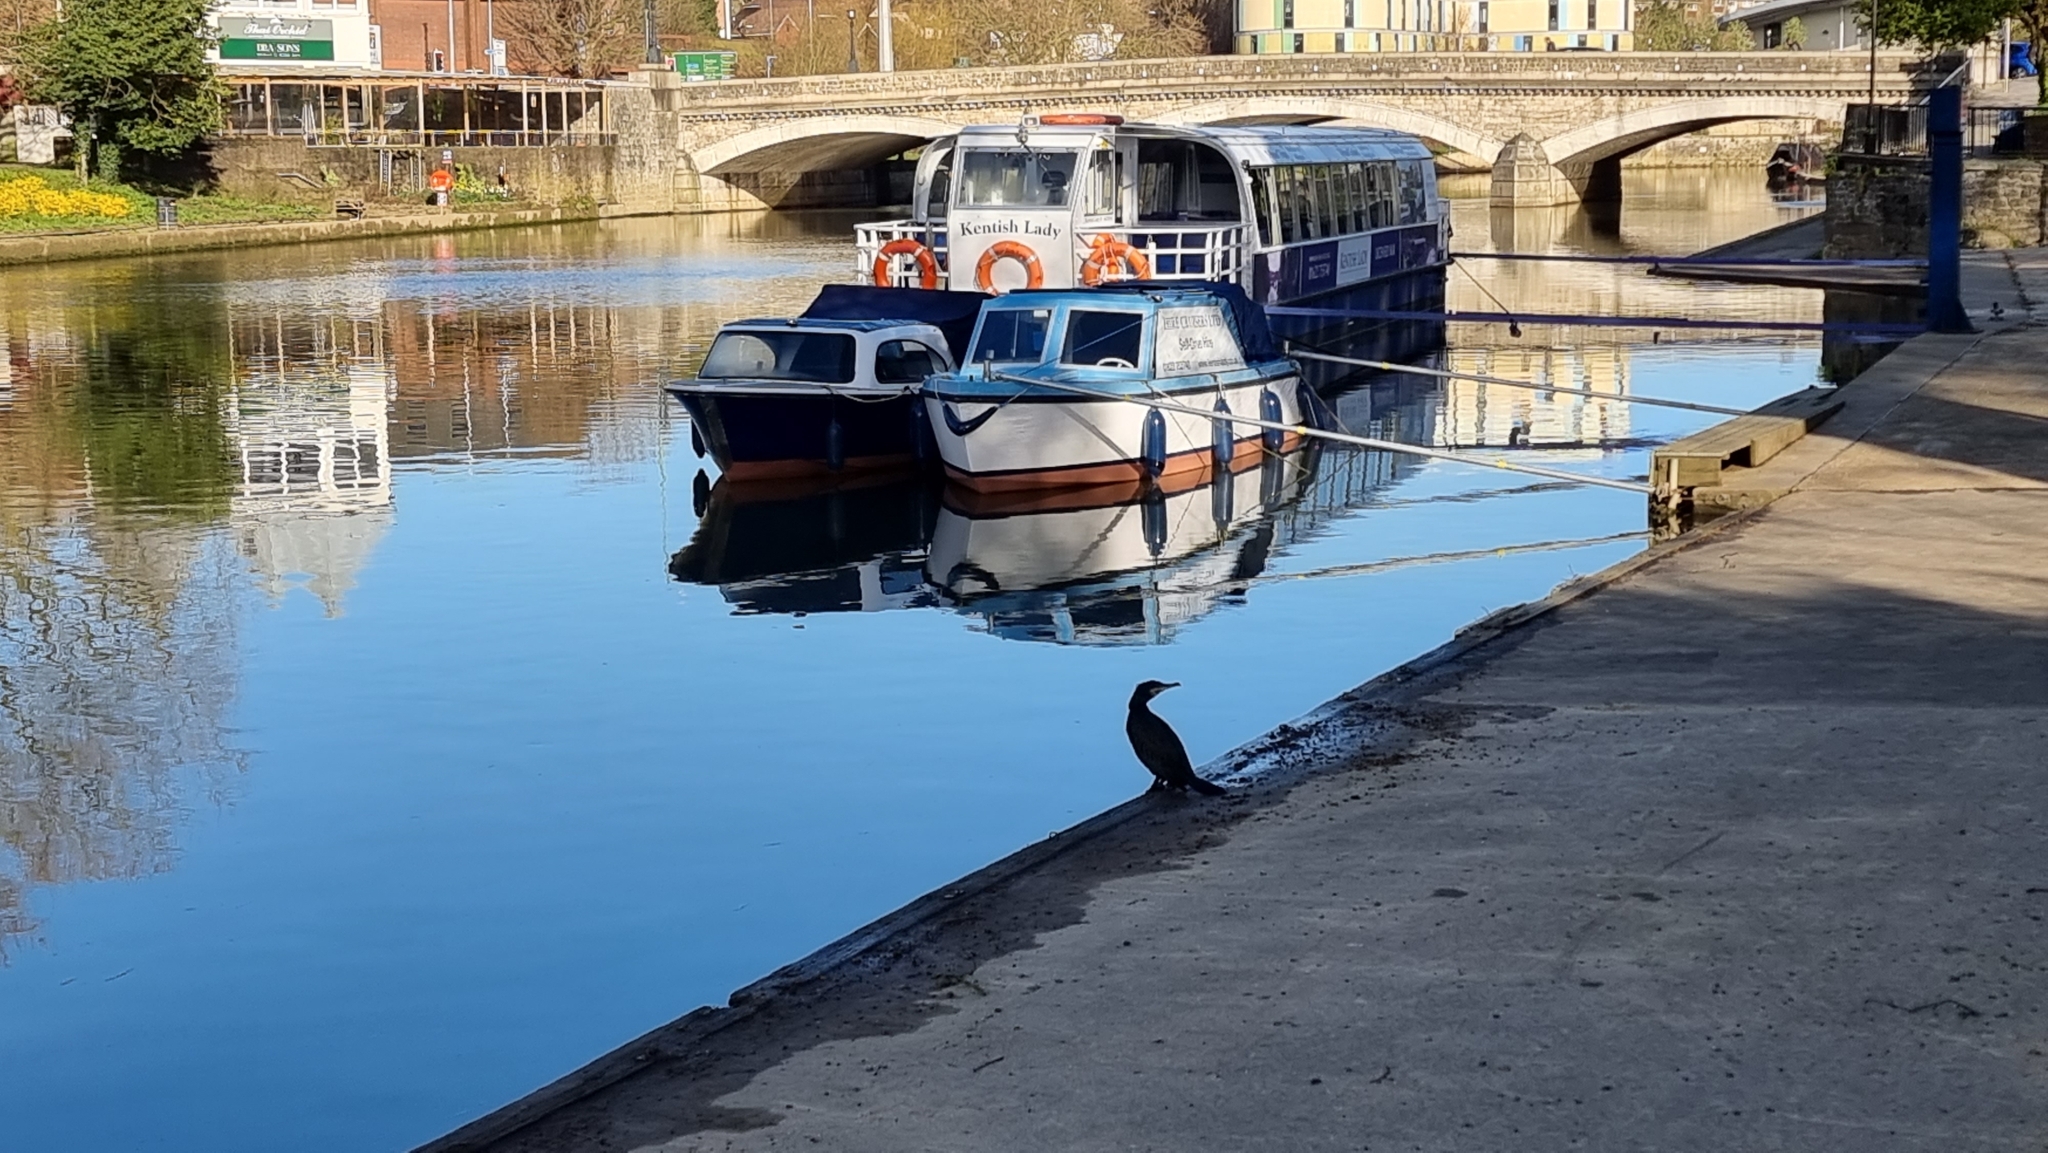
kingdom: Animalia
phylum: Chordata
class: Aves
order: Suliformes
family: Phalacrocoracidae
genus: Phalacrocorax
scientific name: Phalacrocorax carbo
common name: Great cormorant
